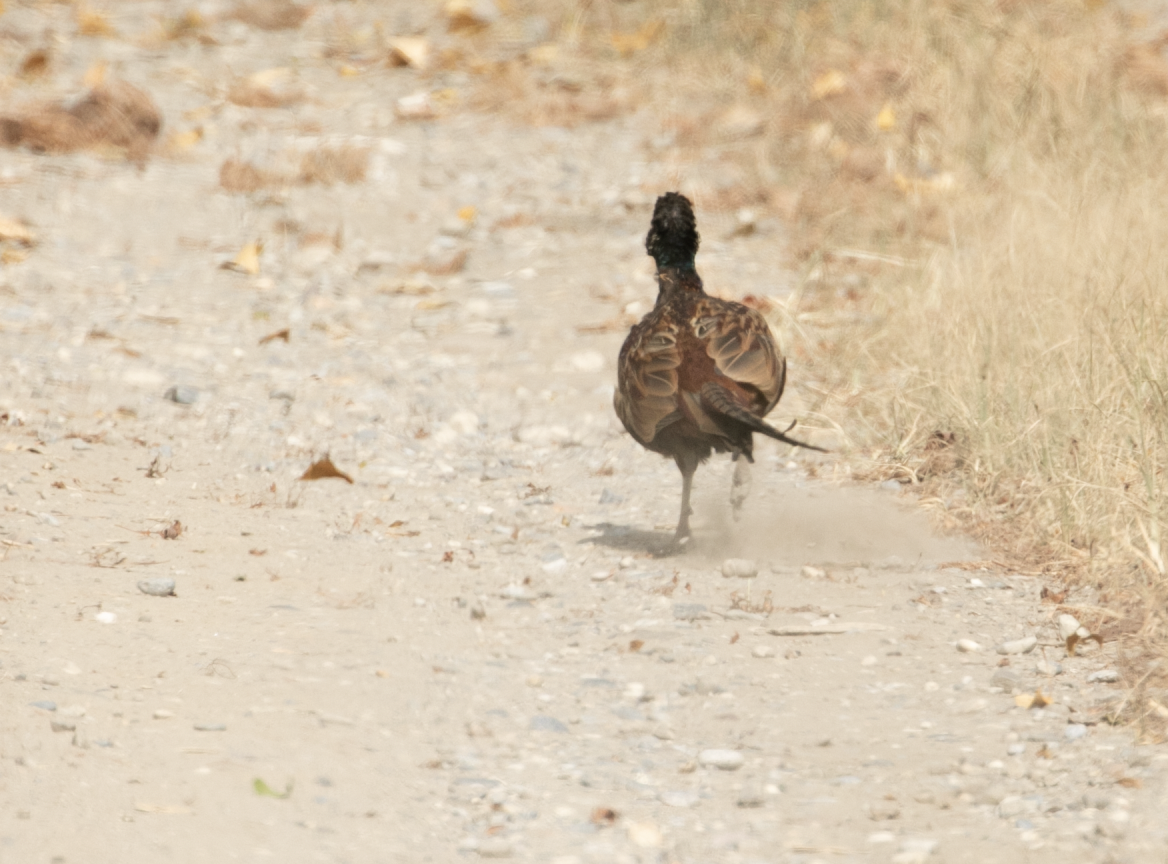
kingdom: Animalia
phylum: Chordata
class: Aves
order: Galliformes
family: Phasianidae
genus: Phasianus
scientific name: Phasianus colchicus
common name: Common pheasant
